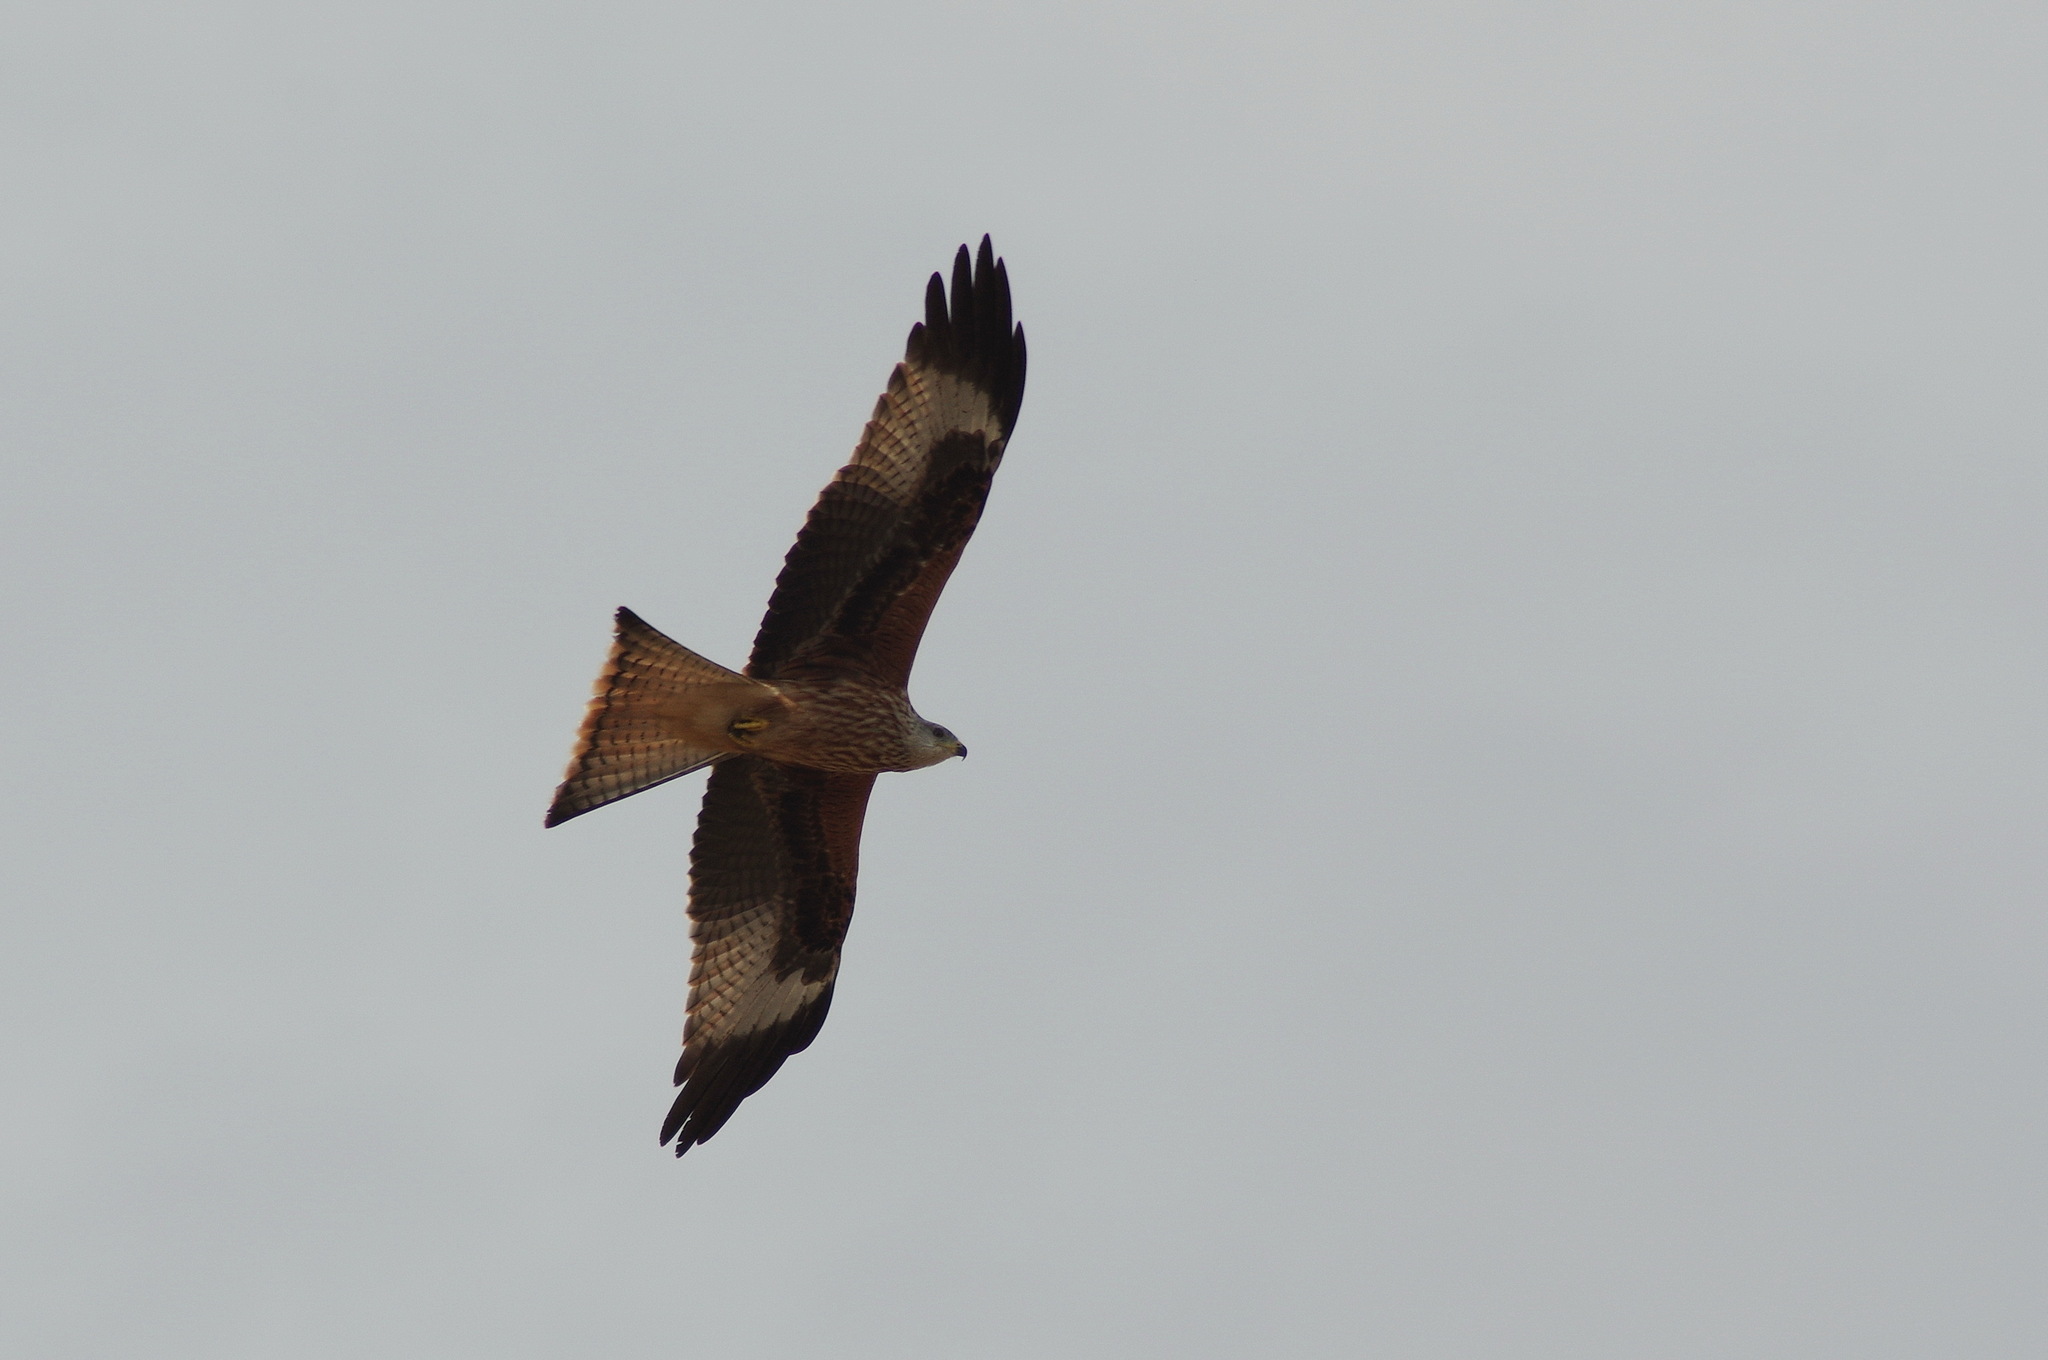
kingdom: Animalia
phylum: Chordata
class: Aves
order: Accipitriformes
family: Accipitridae
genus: Milvus
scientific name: Milvus milvus
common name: Red kite
